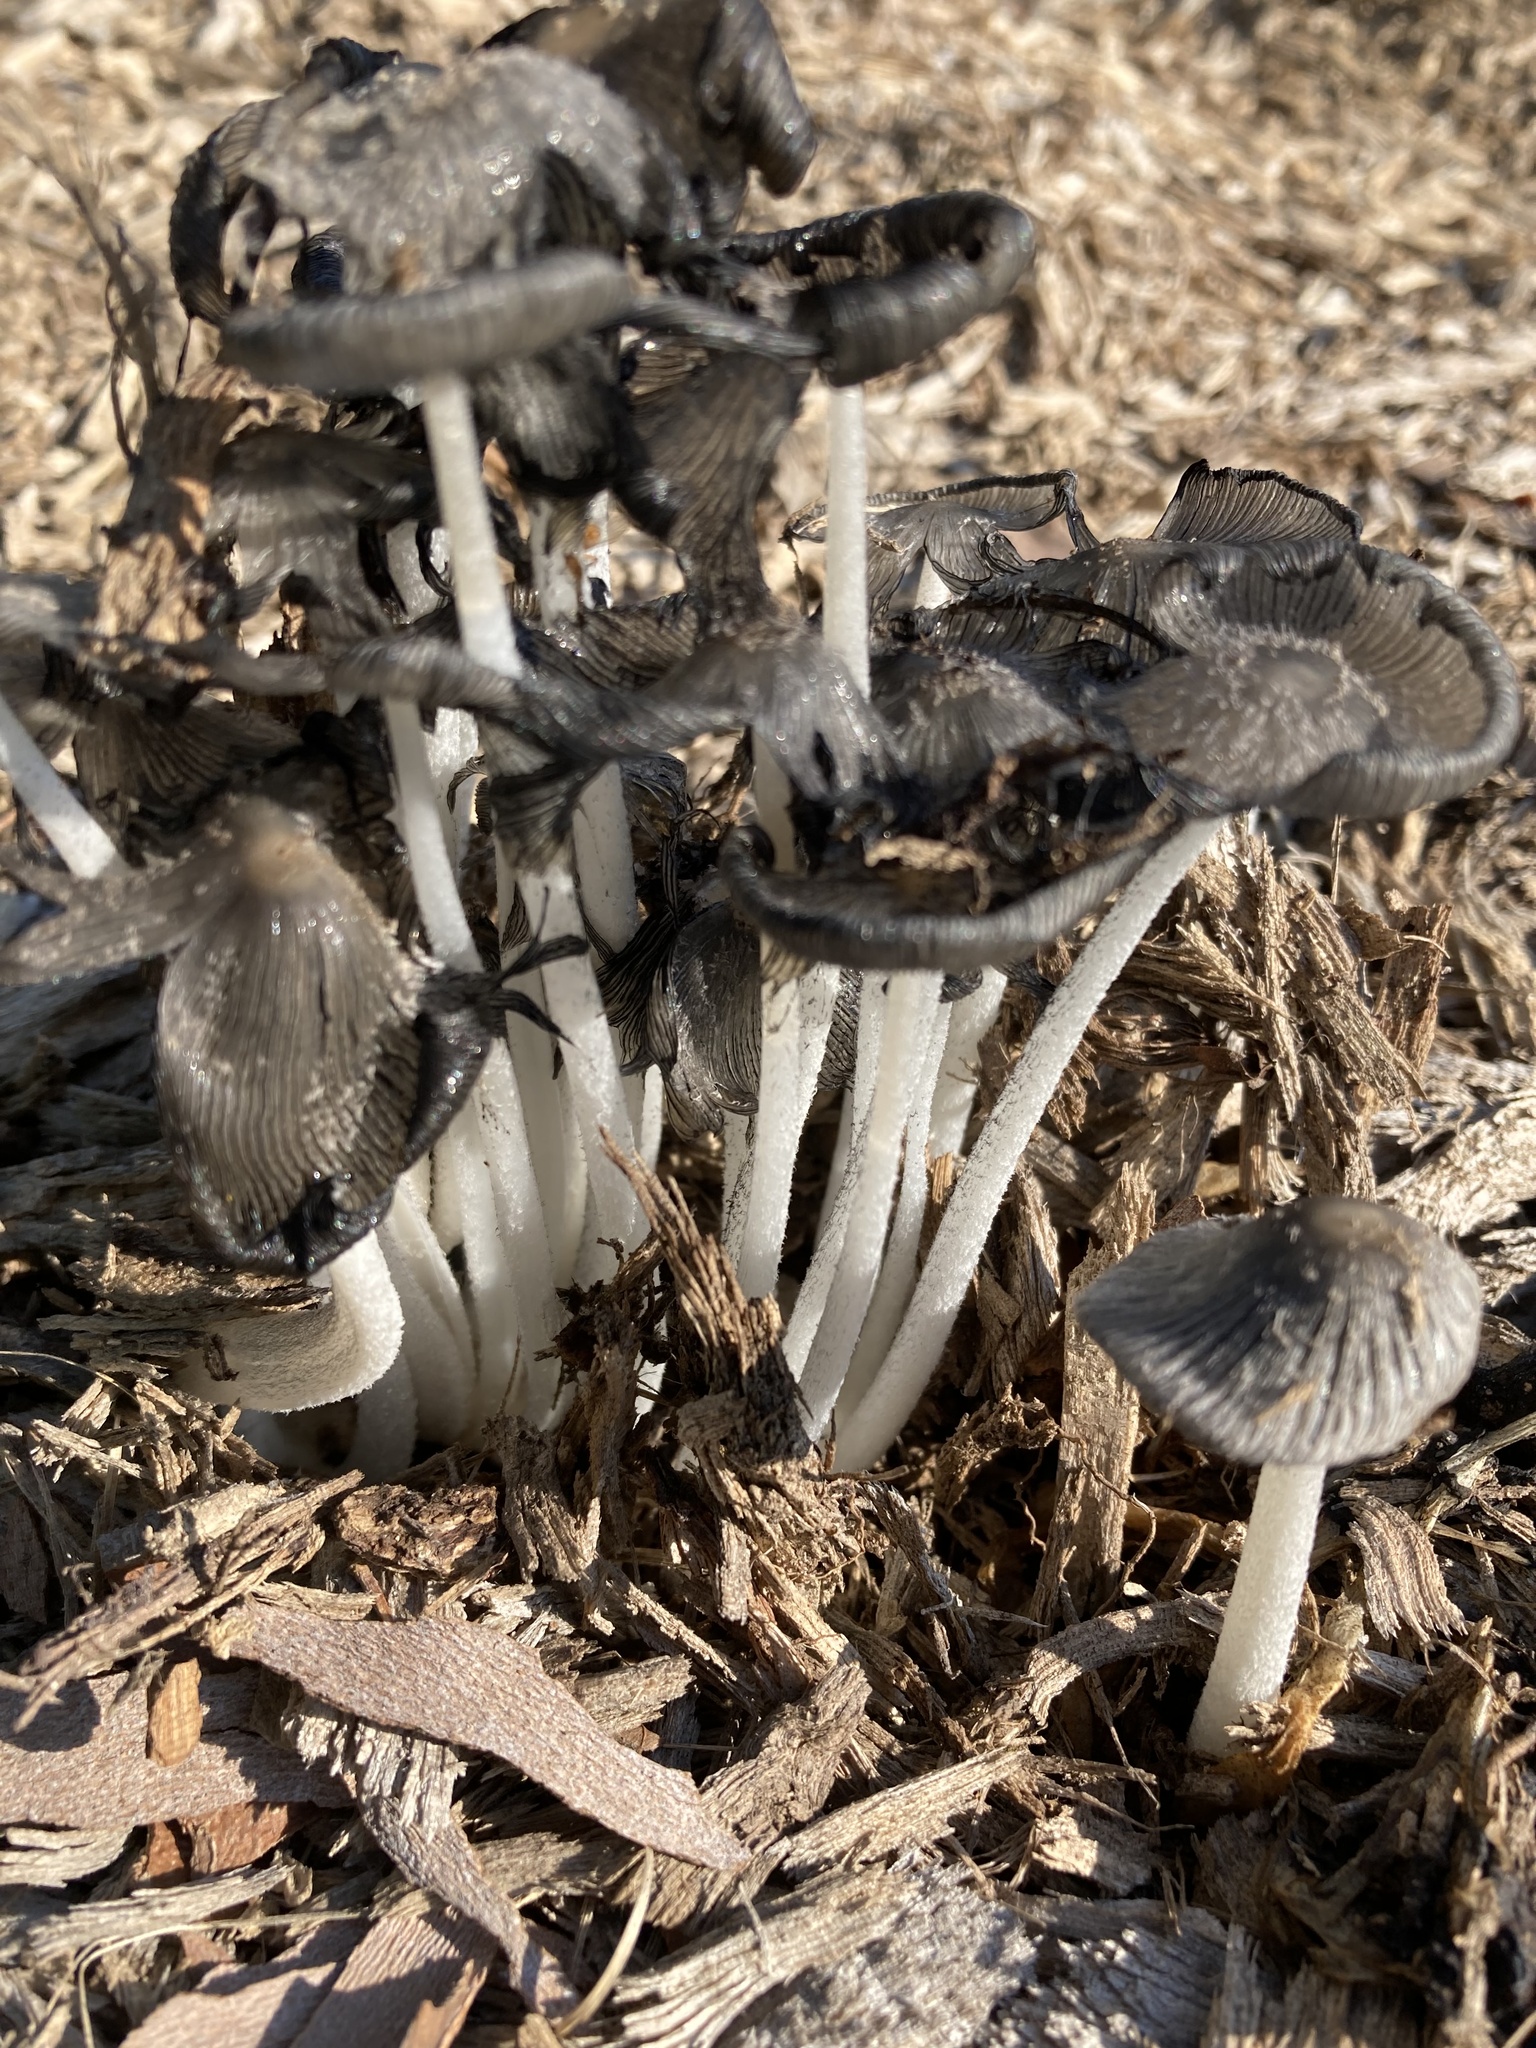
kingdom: Fungi
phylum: Basidiomycota
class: Agaricomycetes
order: Agaricales
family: Psathyrellaceae
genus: Coprinopsis
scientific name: Coprinopsis lagopus
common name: Hare'sfoot inkcap
